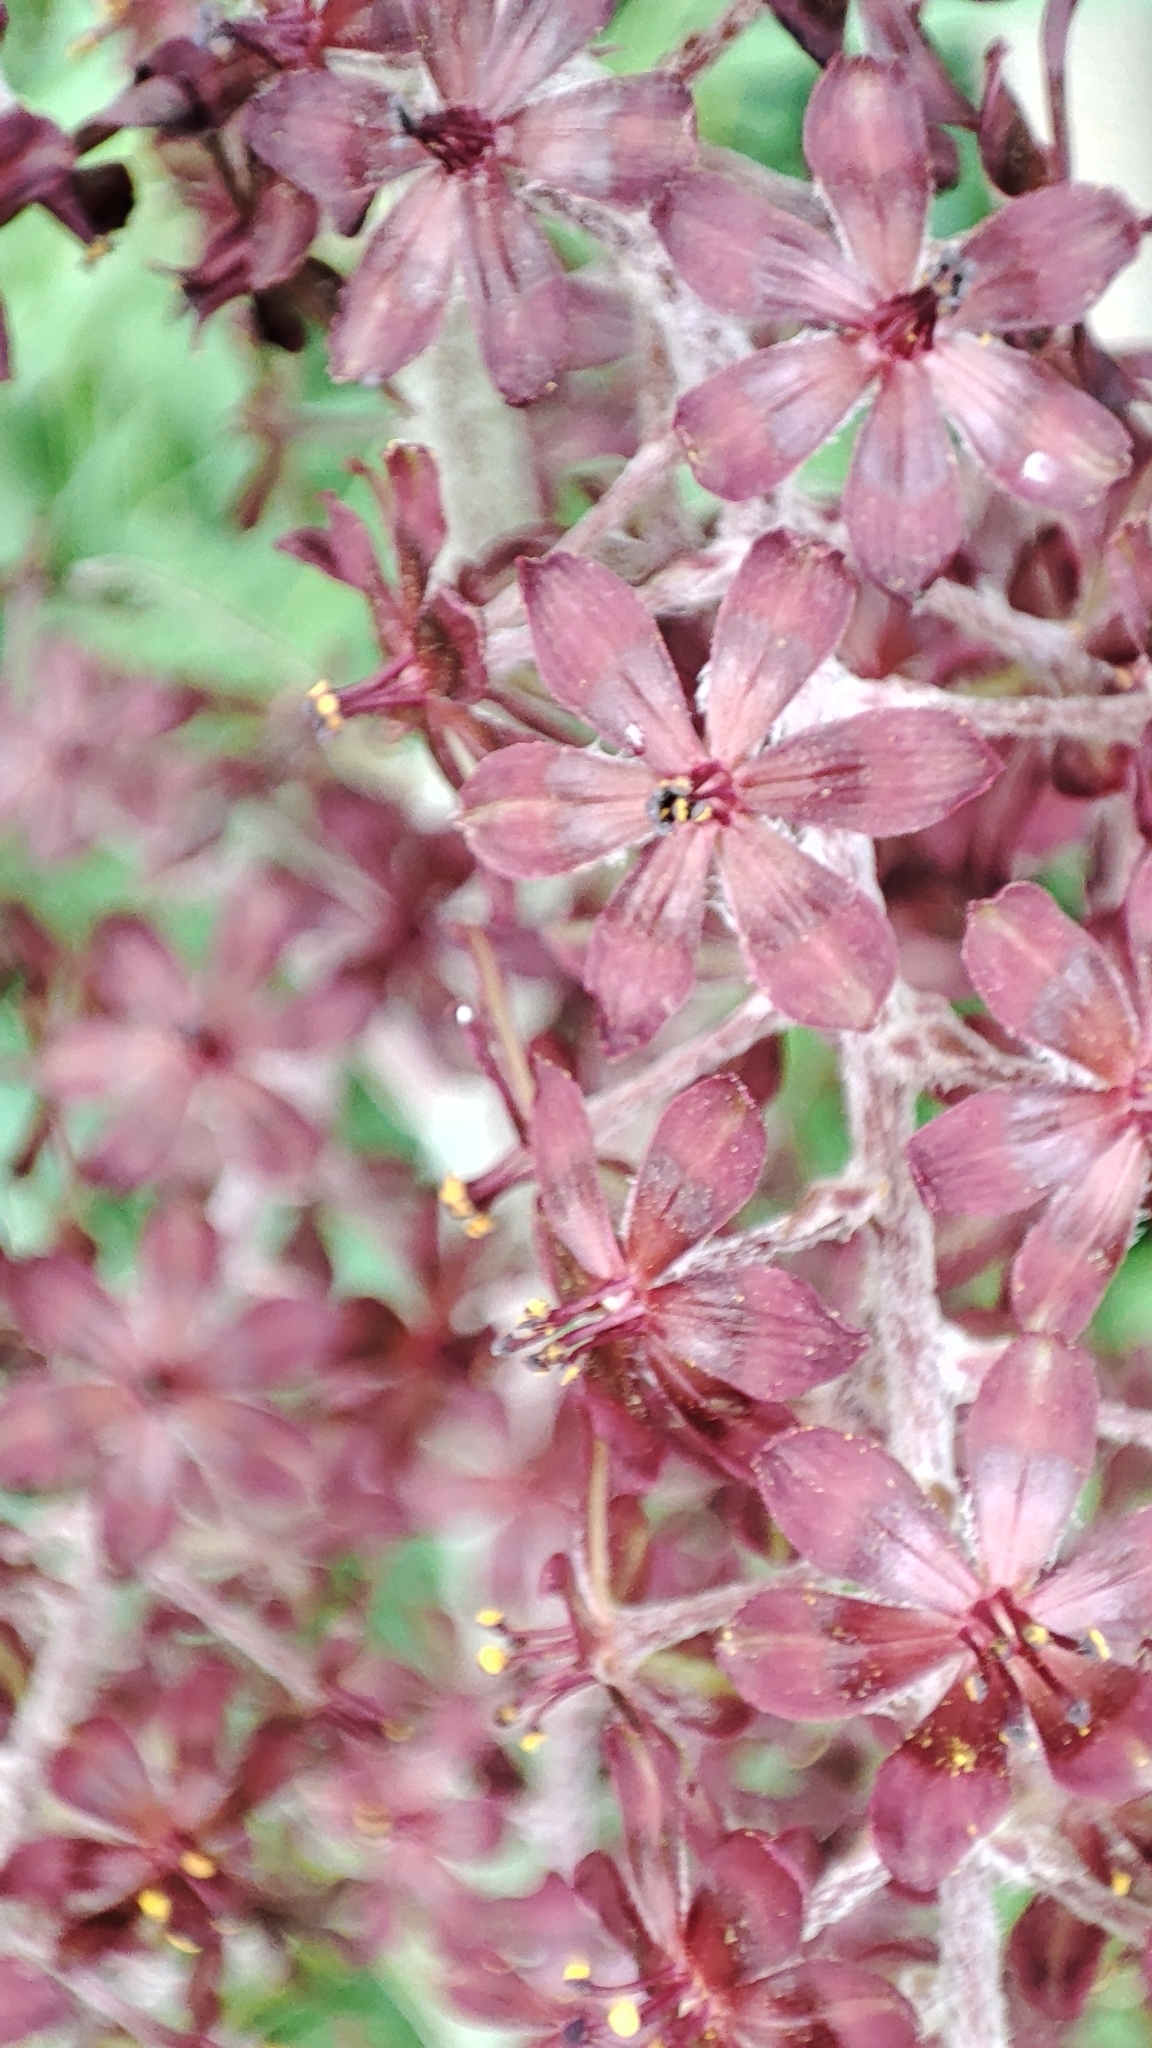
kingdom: Plantae
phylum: Tracheophyta
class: Liliopsida
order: Liliales
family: Melanthiaceae
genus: Veratrum
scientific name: Veratrum nigrum
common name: Black veratrum
